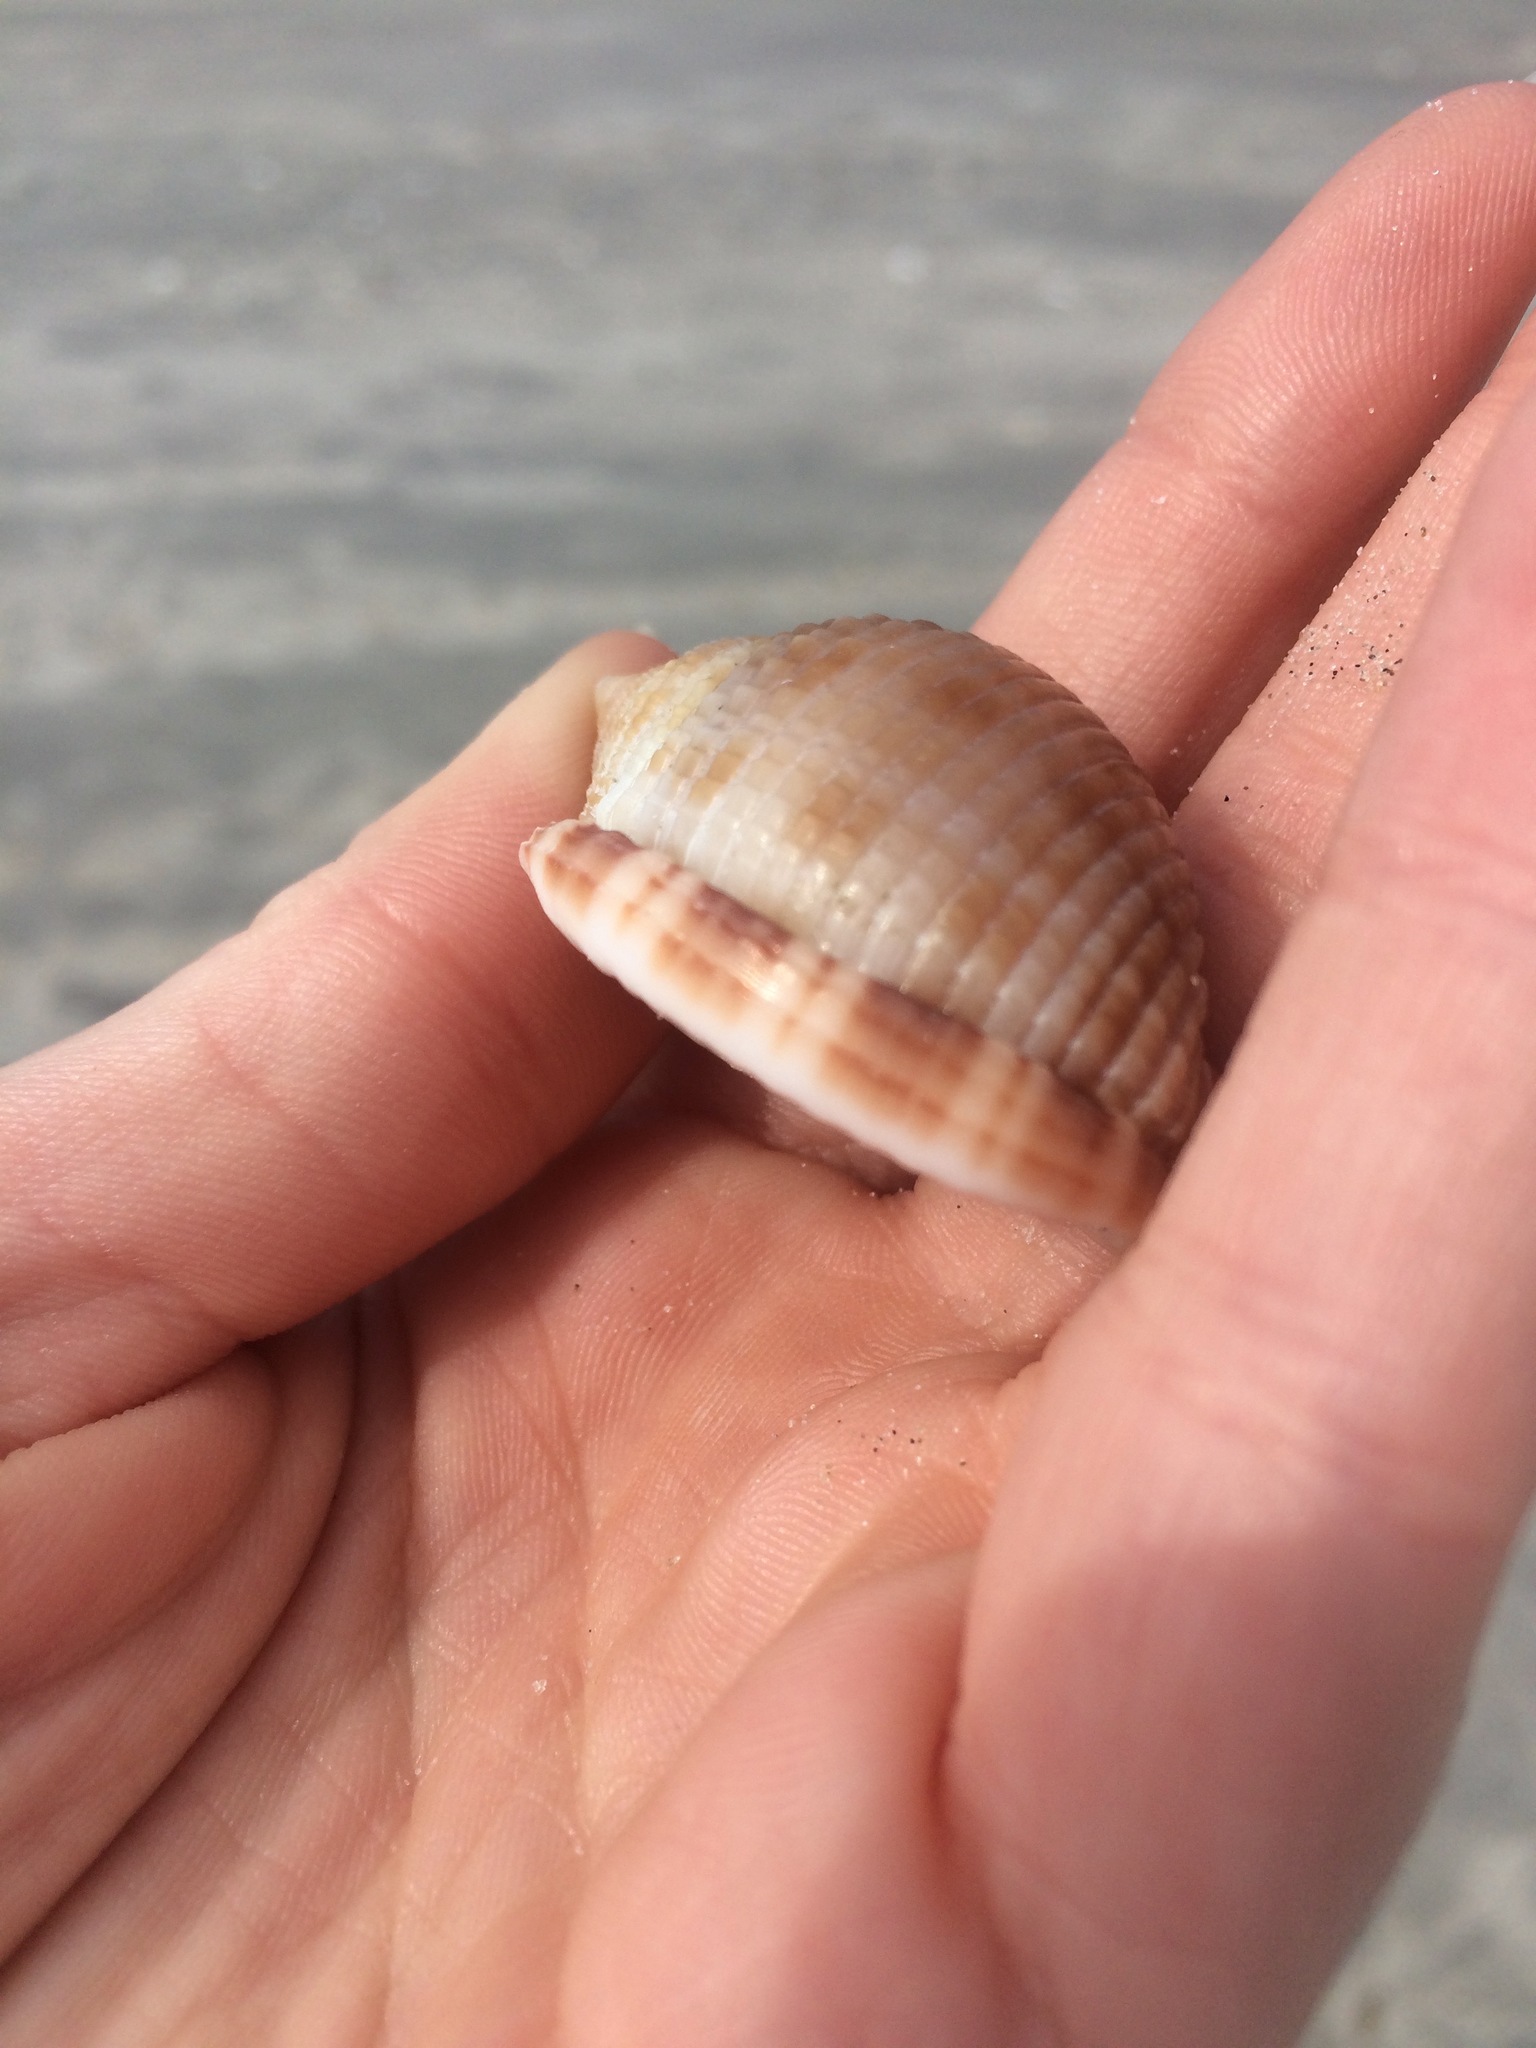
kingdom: Animalia
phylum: Mollusca
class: Gastropoda
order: Littorinimorpha
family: Cassidae
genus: Semicassis
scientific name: Semicassis granulata
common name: Scotch bonnet
